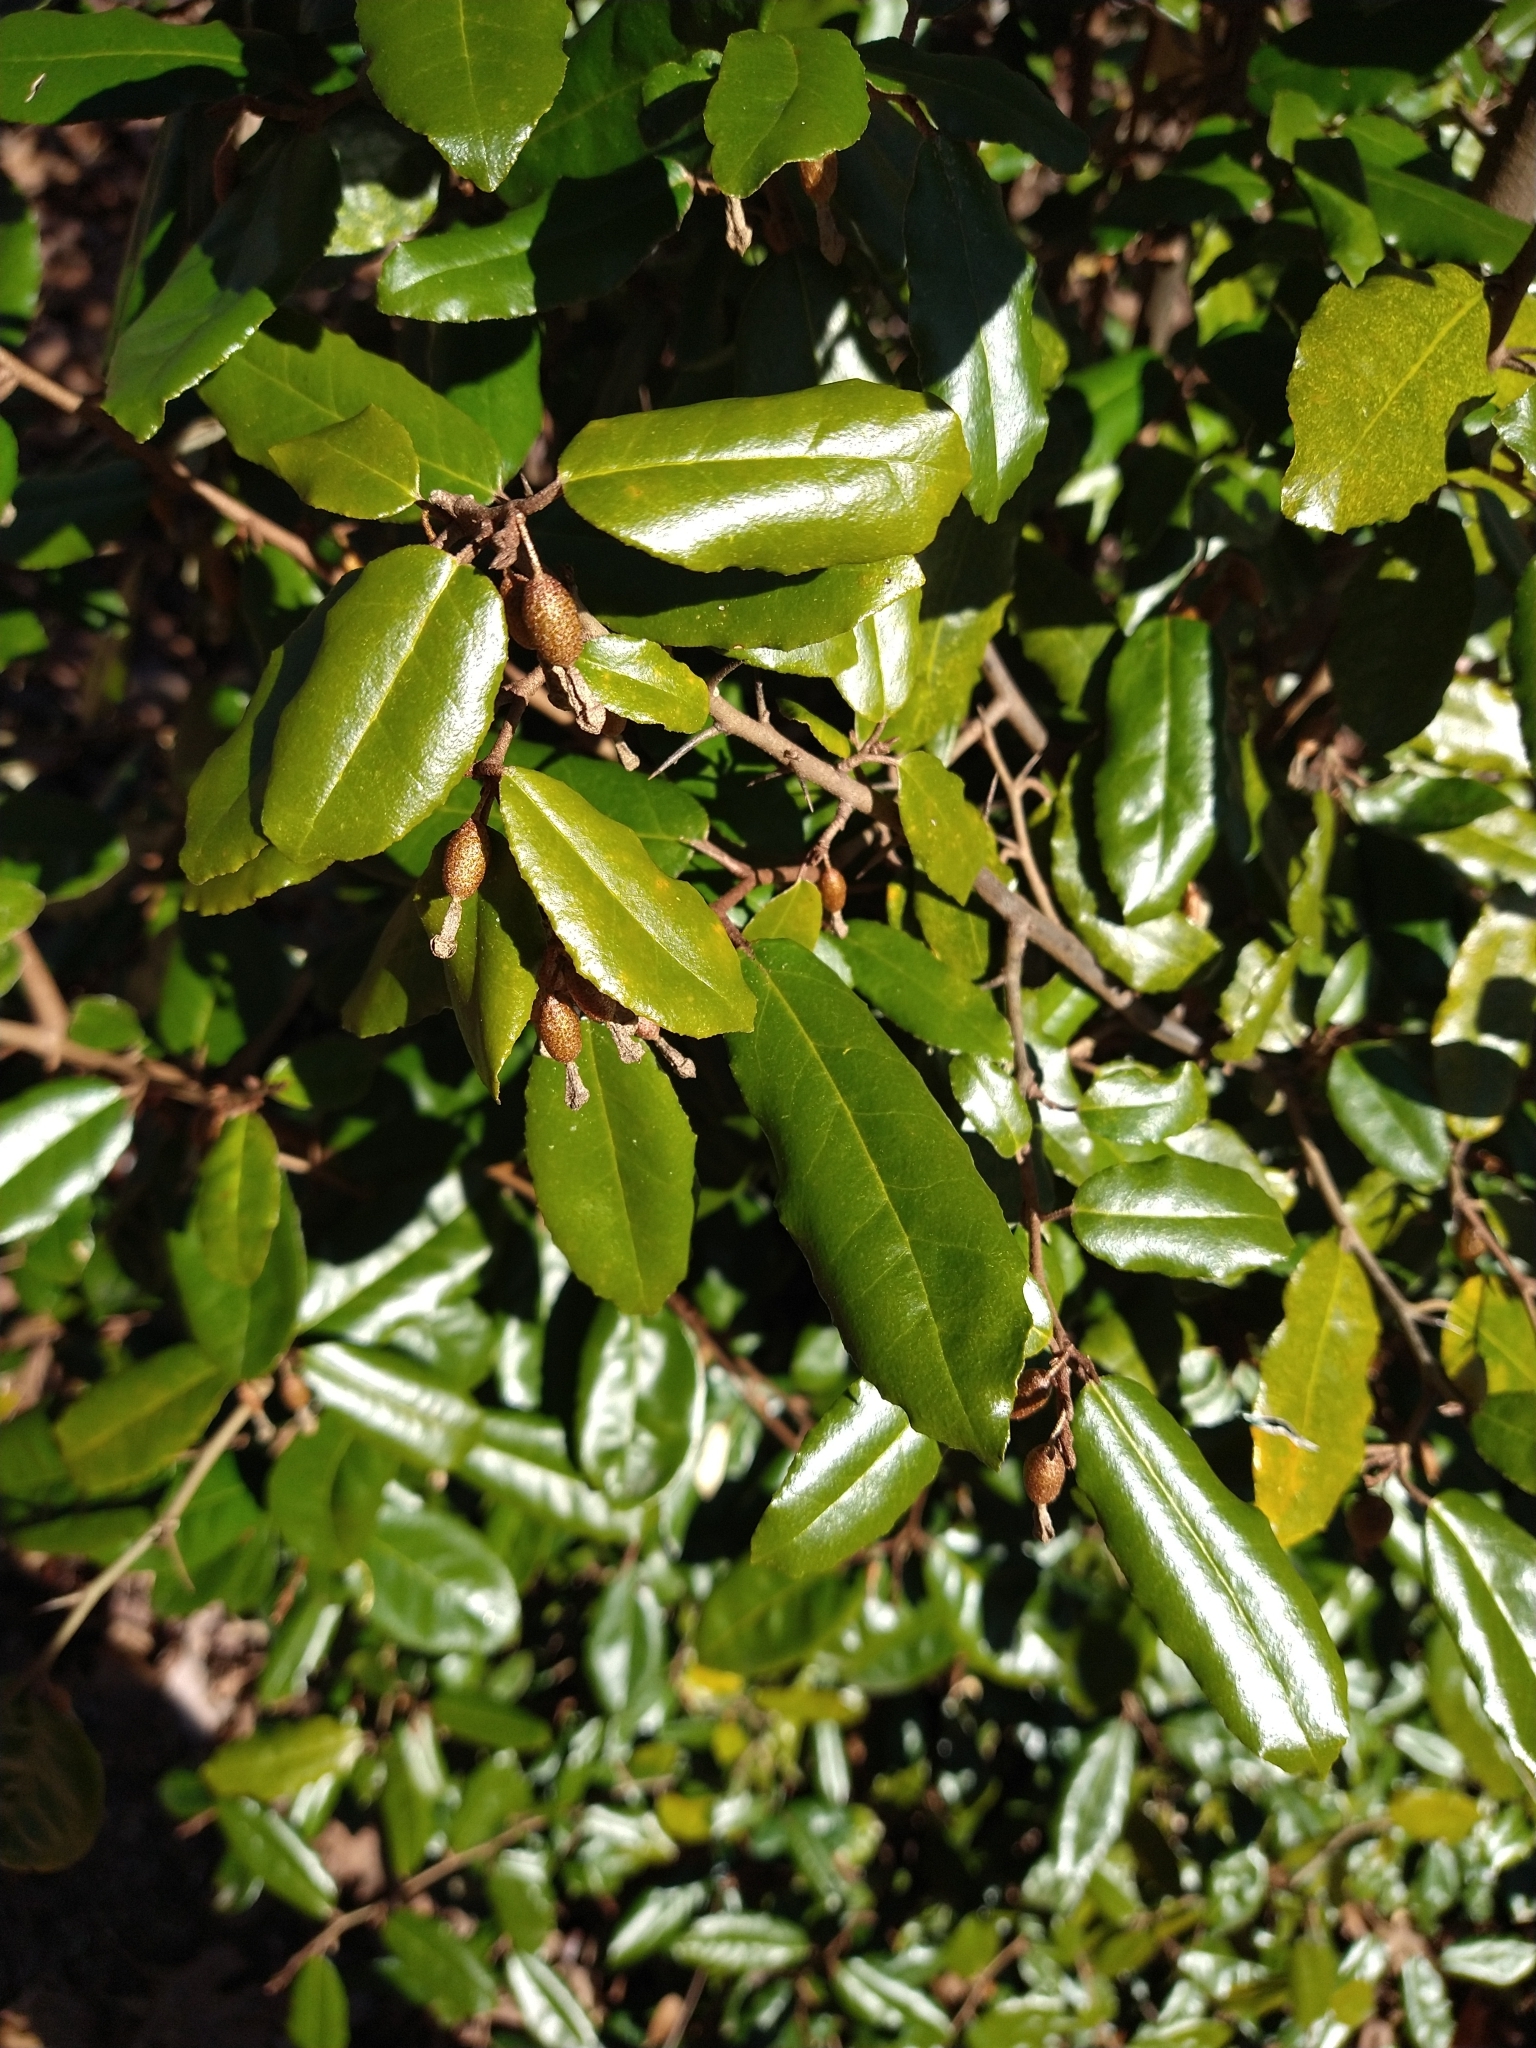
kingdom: Plantae
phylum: Tracheophyta
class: Magnoliopsida
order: Rosales
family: Elaeagnaceae
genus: Elaeagnus
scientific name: Elaeagnus pungens
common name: Spiny oleaster
